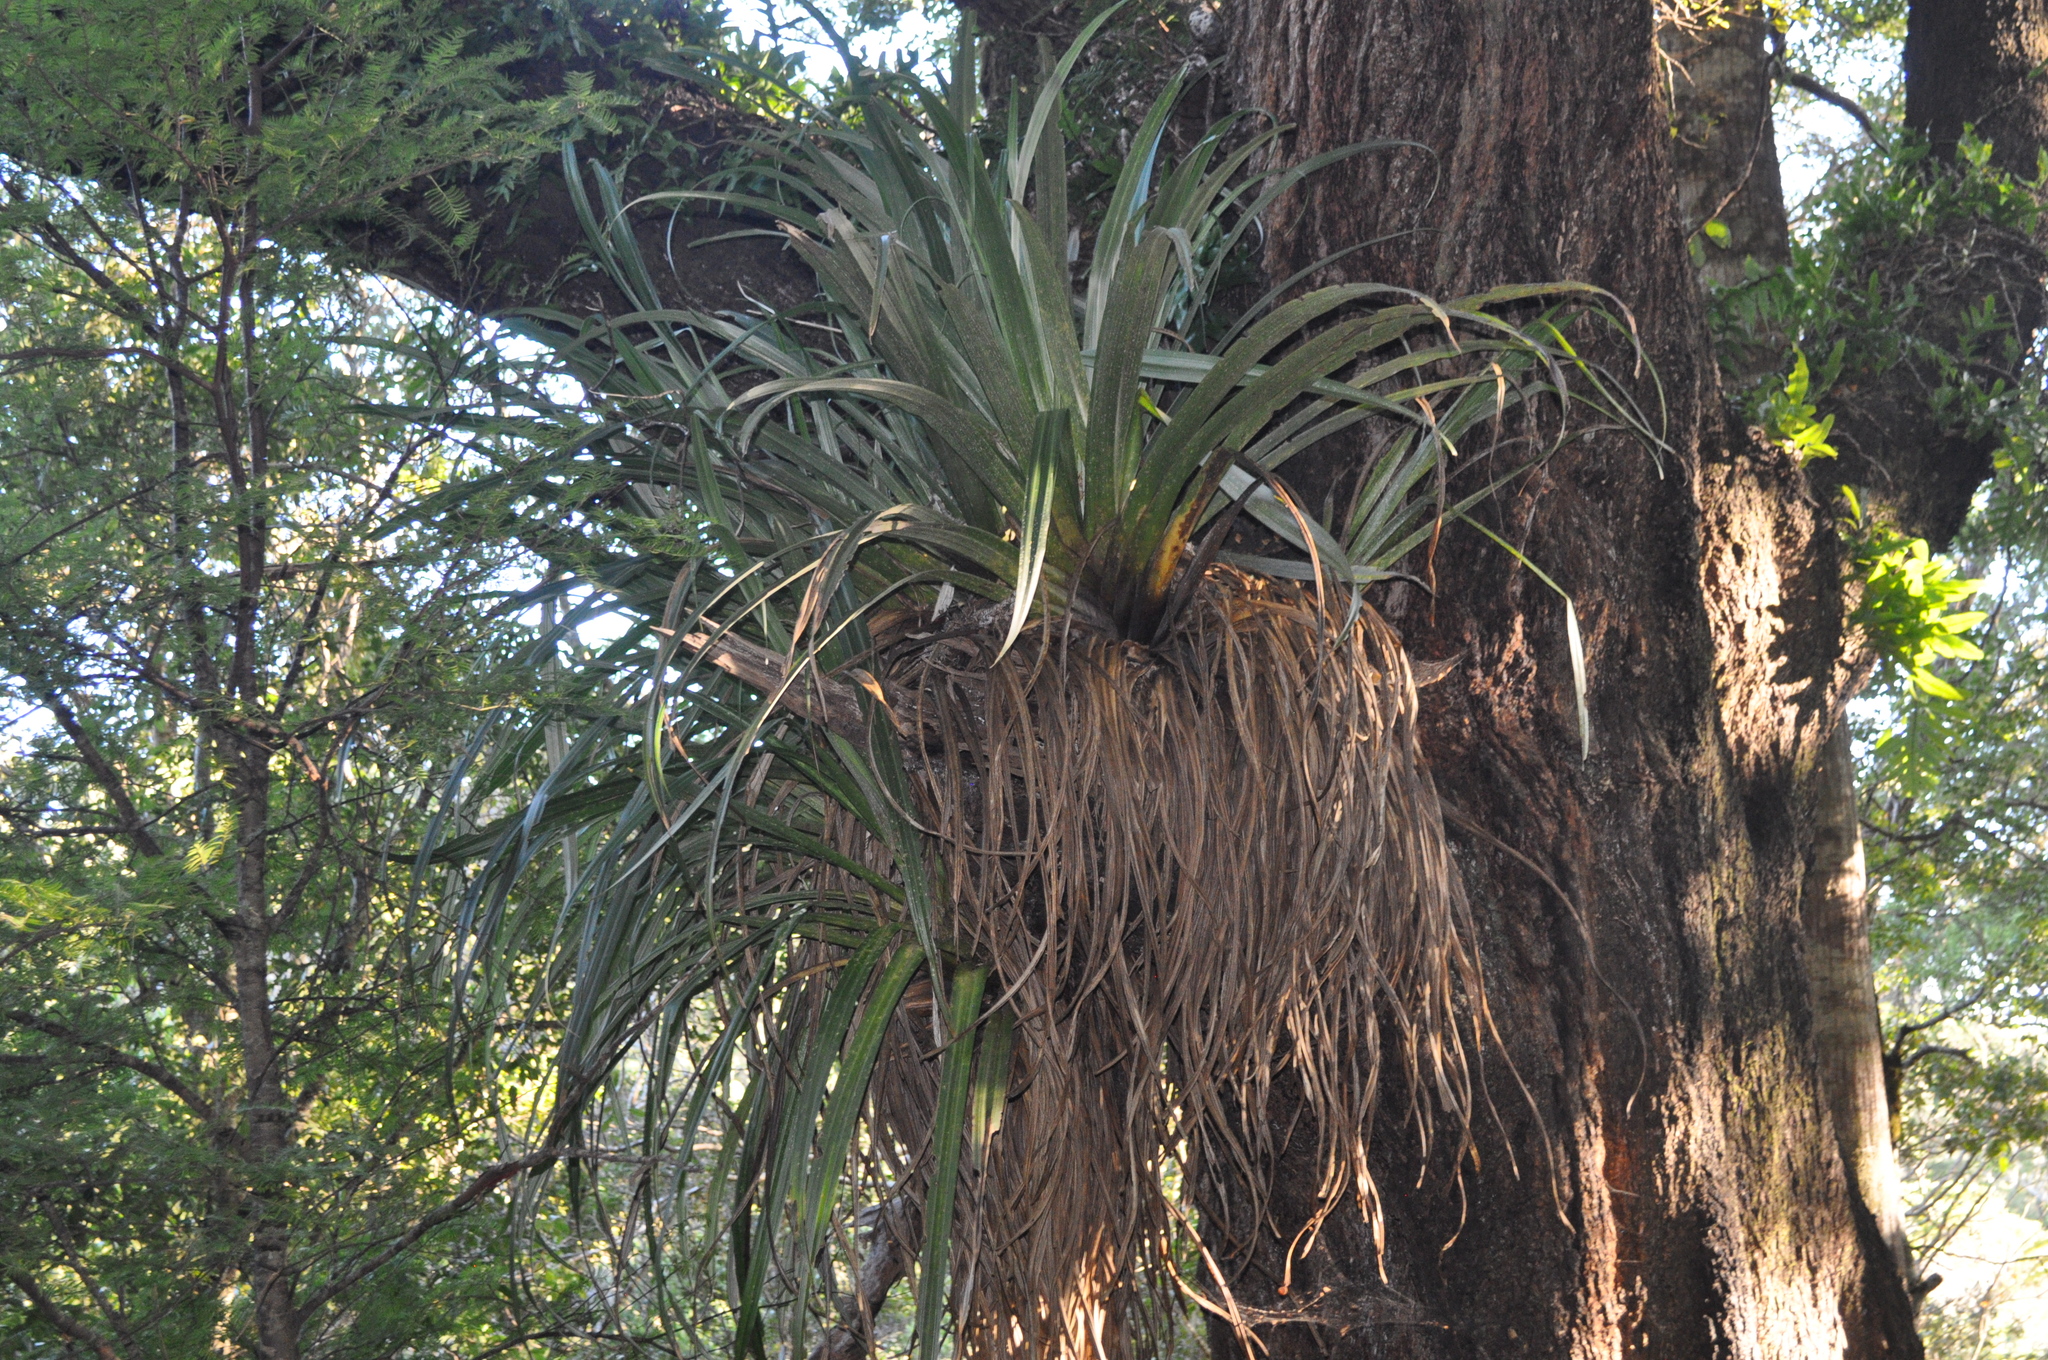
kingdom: Plantae
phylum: Tracheophyta
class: Liliopsida
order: Asparagales
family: Asteliaceae
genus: Astelia
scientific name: Astelia hastata
